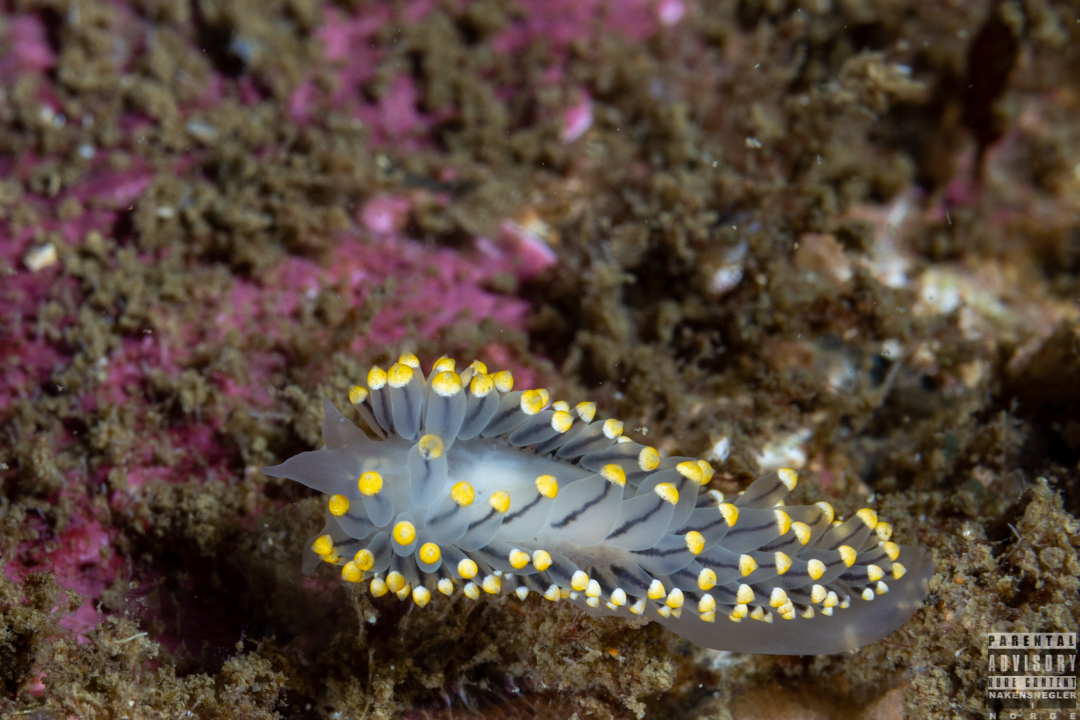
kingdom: Animalia
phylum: Mollusca
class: Gastropoda
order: Nudibranchia
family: Eubranchidae
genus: Eubranchus
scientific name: Eubranchus tricolor
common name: Painted balloon aeolis
